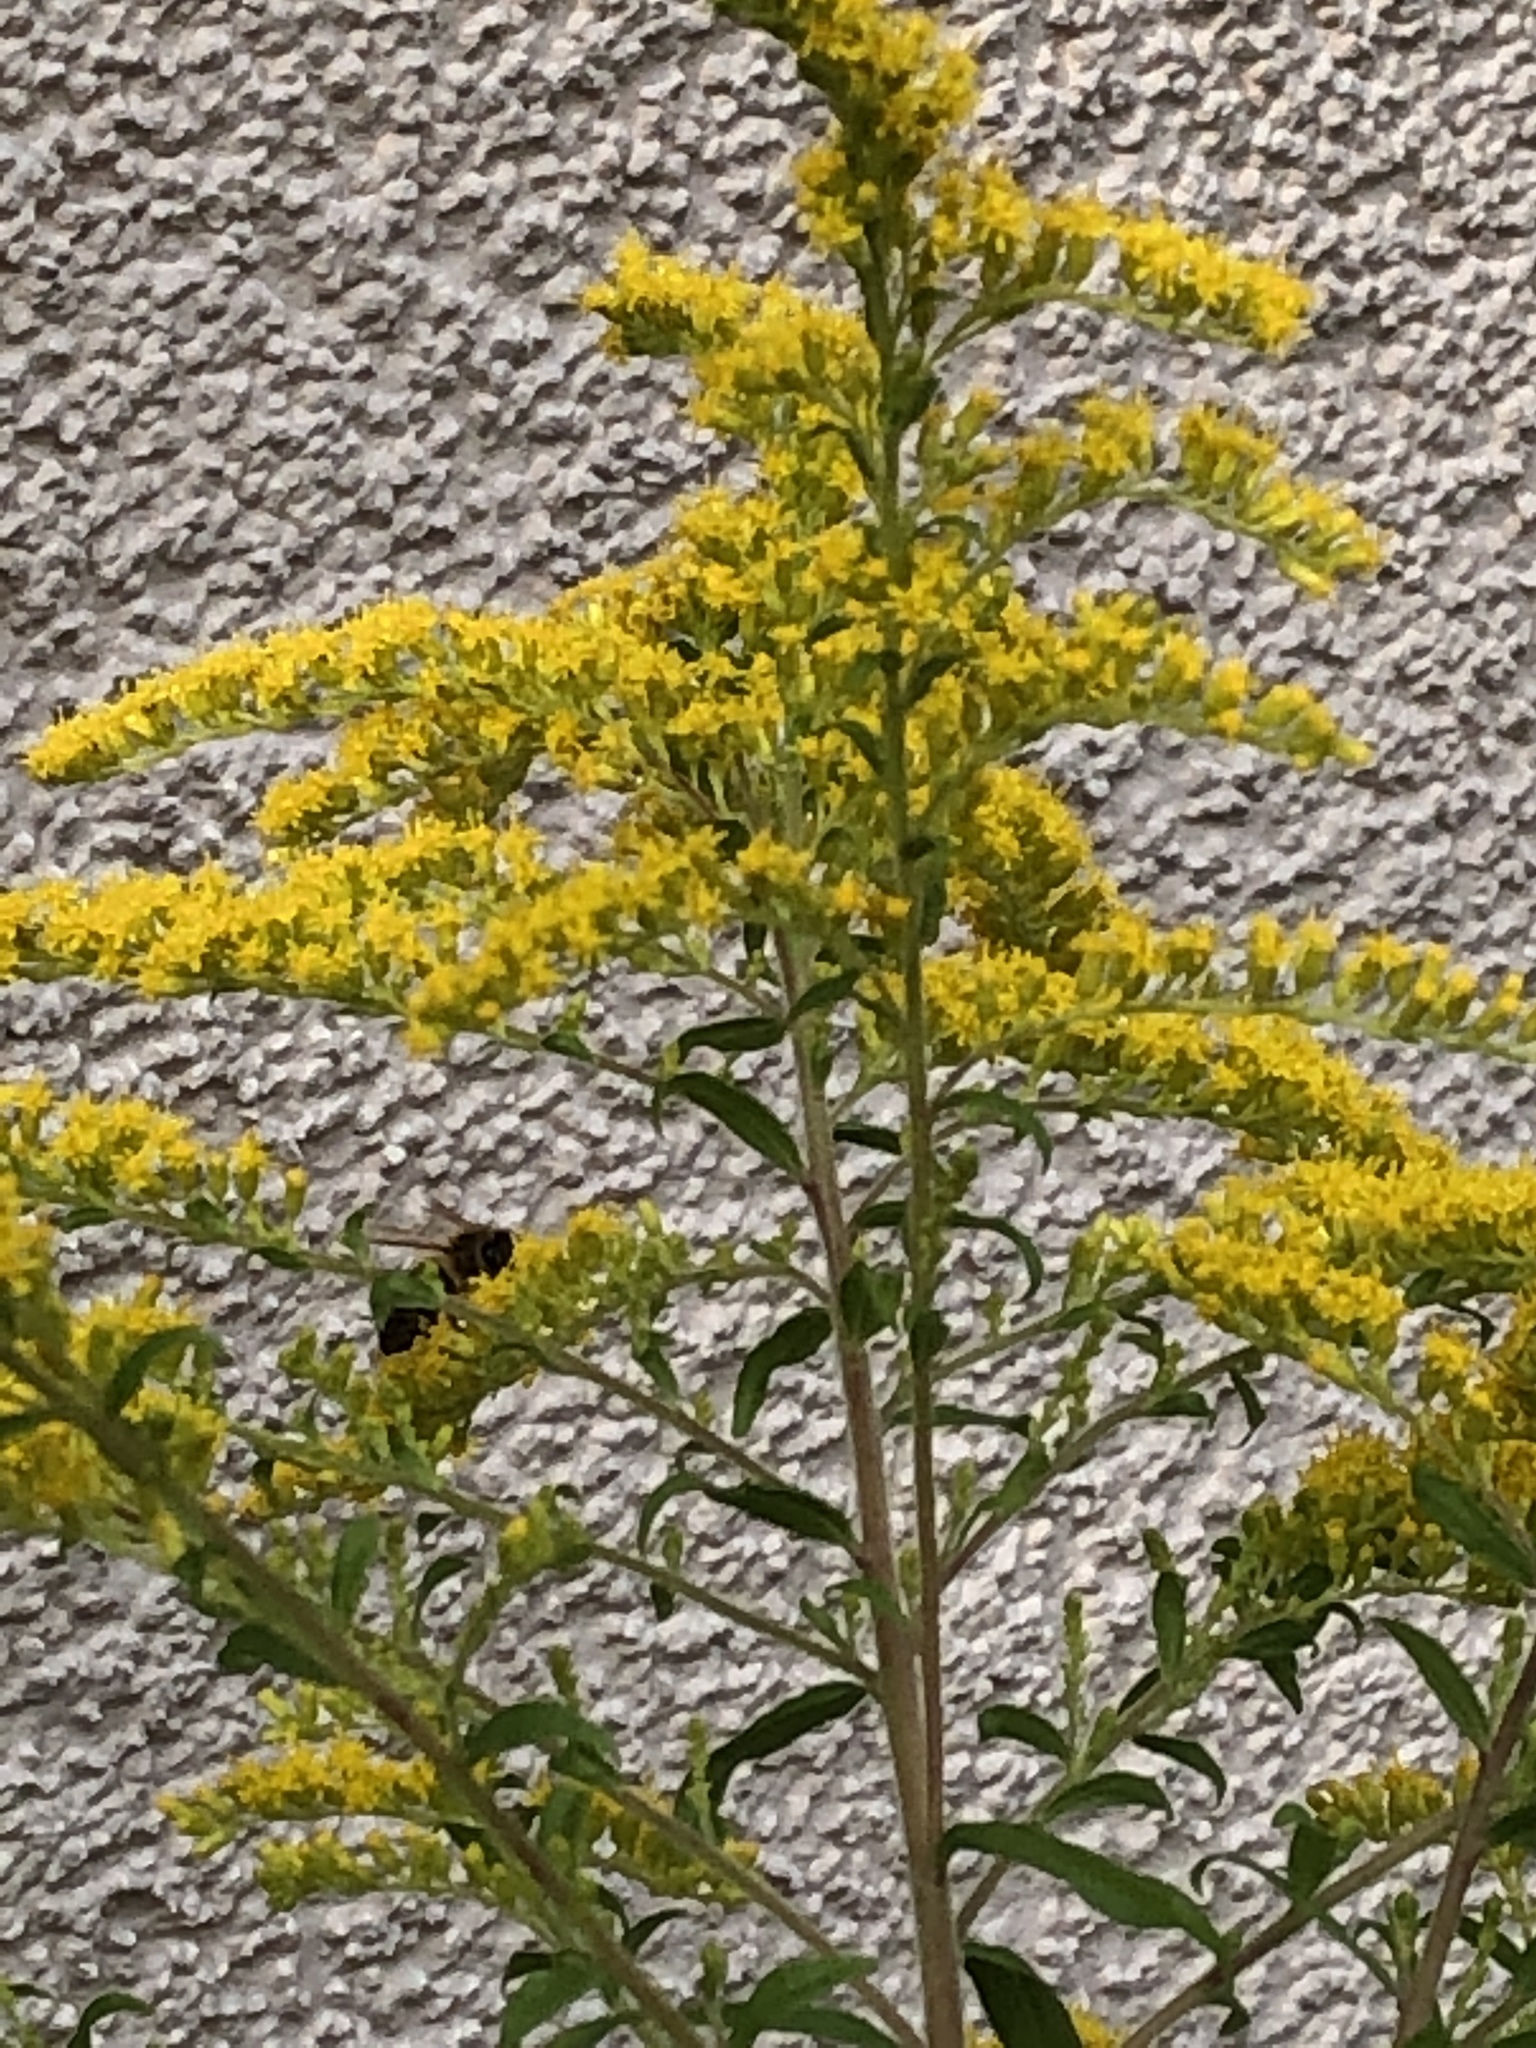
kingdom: Plantae
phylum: Tracheophyta
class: Magnoliopsida
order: Asterales
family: Asteraceae
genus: Solidago
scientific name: Solidago canadensis
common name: Canada goldenrod
